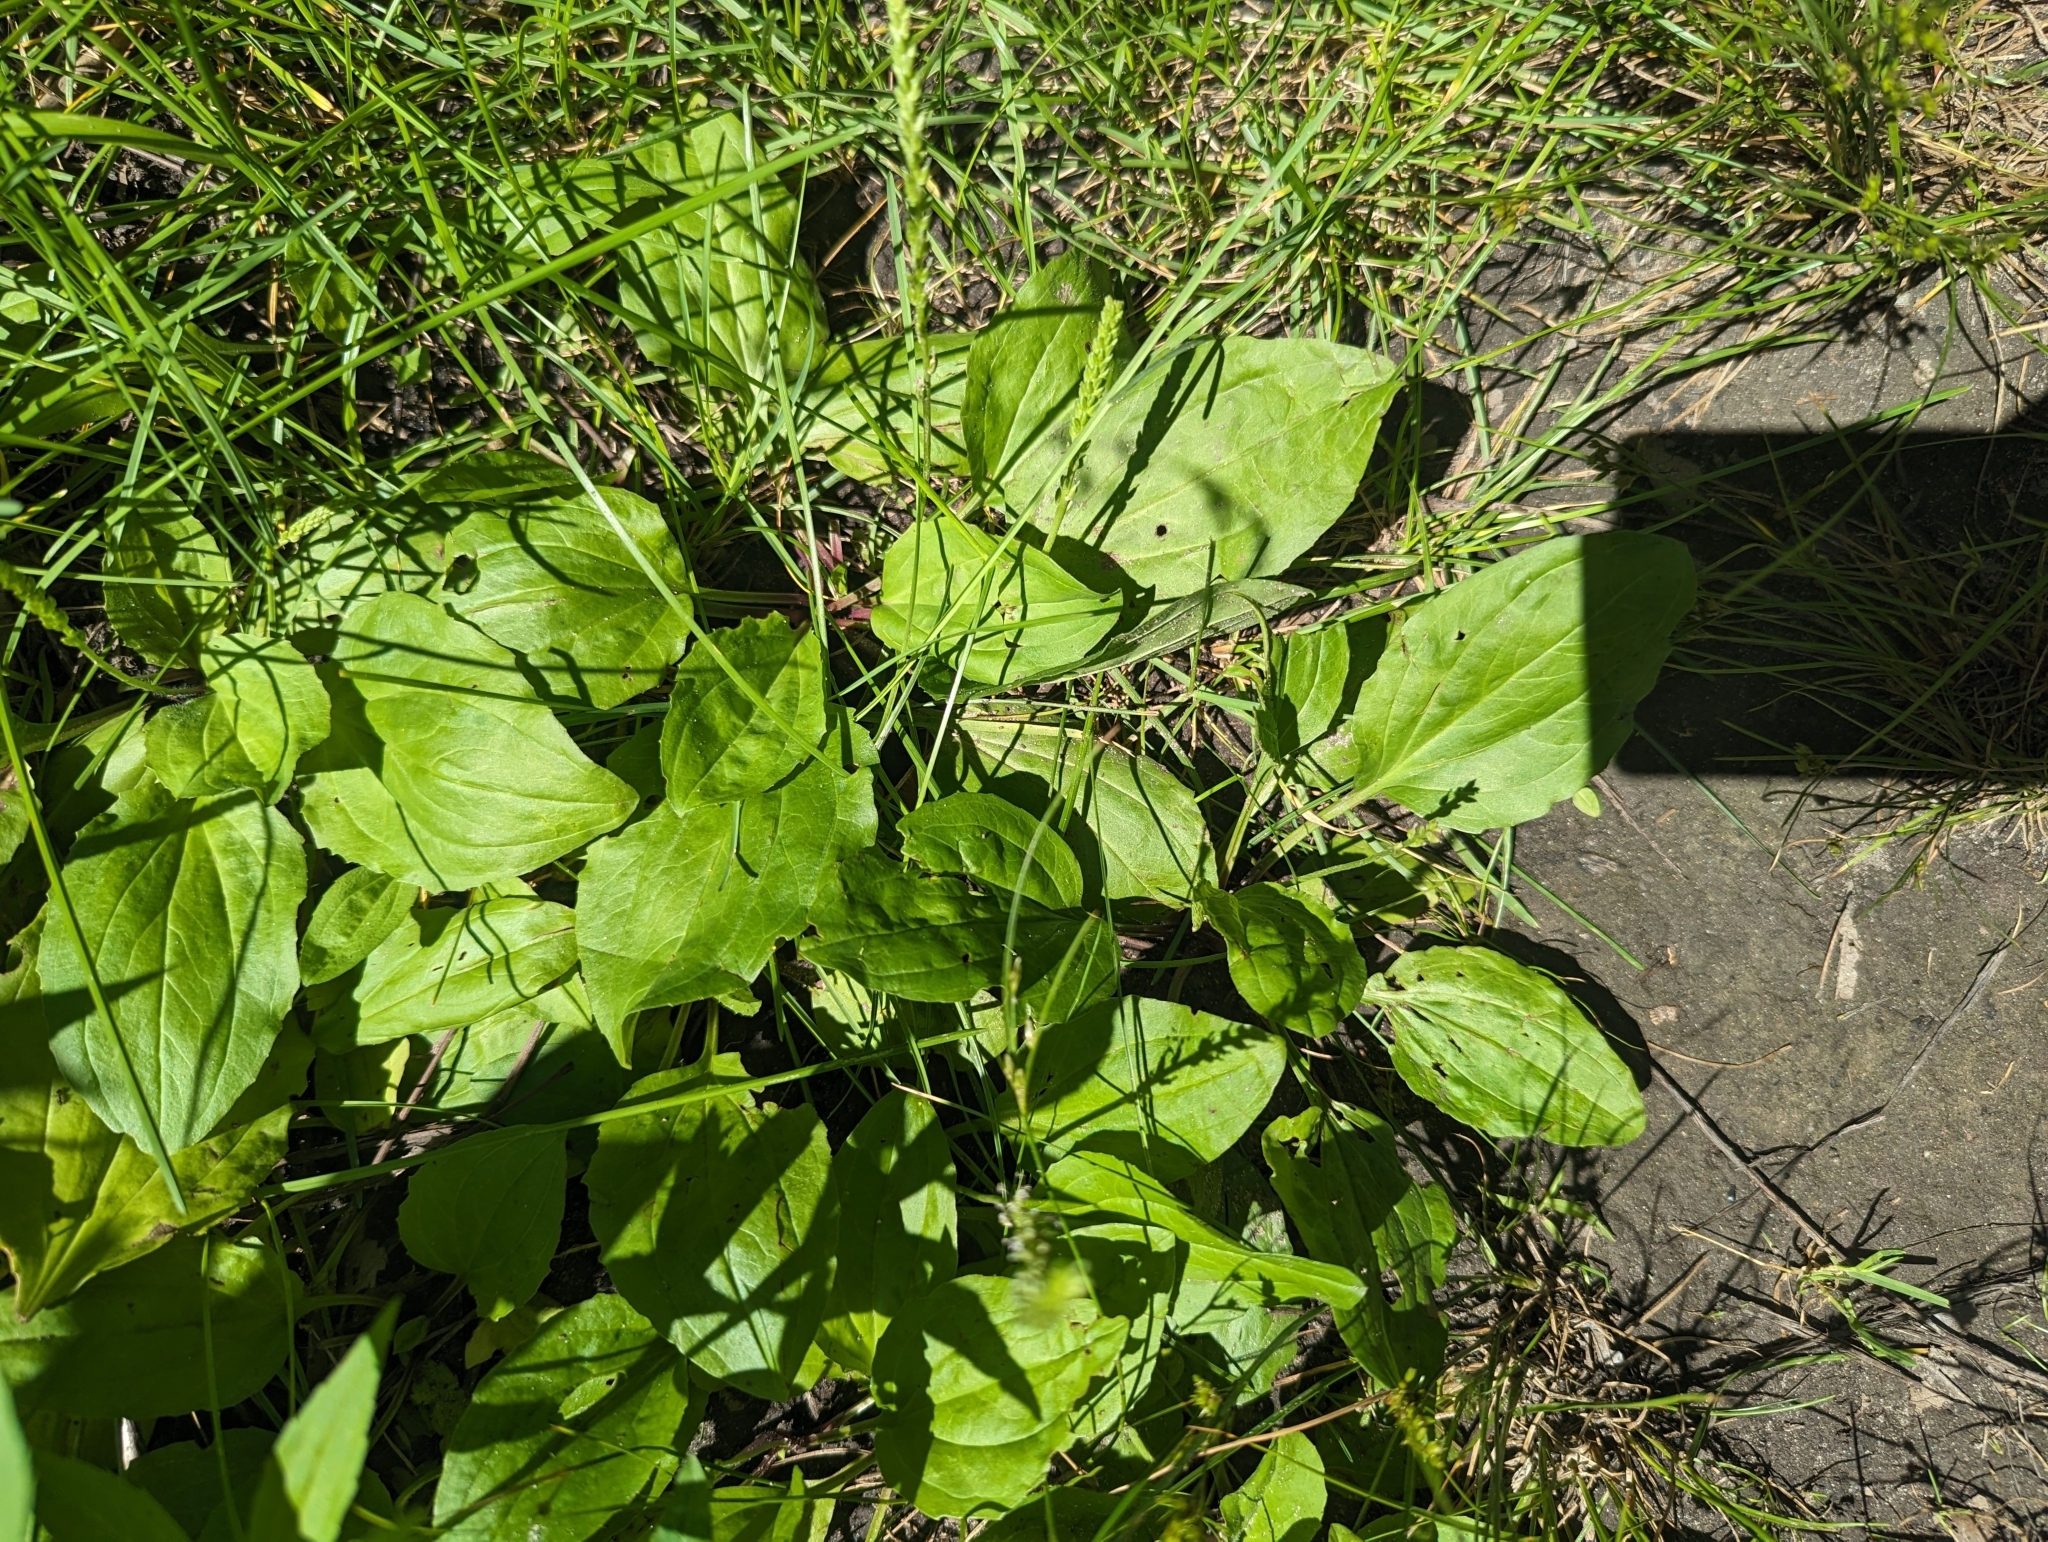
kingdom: Plantae
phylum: Tracheophyta
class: Magnoliopsida
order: Lamiales
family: Plantaginaceae
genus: Plantago
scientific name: Plantago rugelii
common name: American plantain
